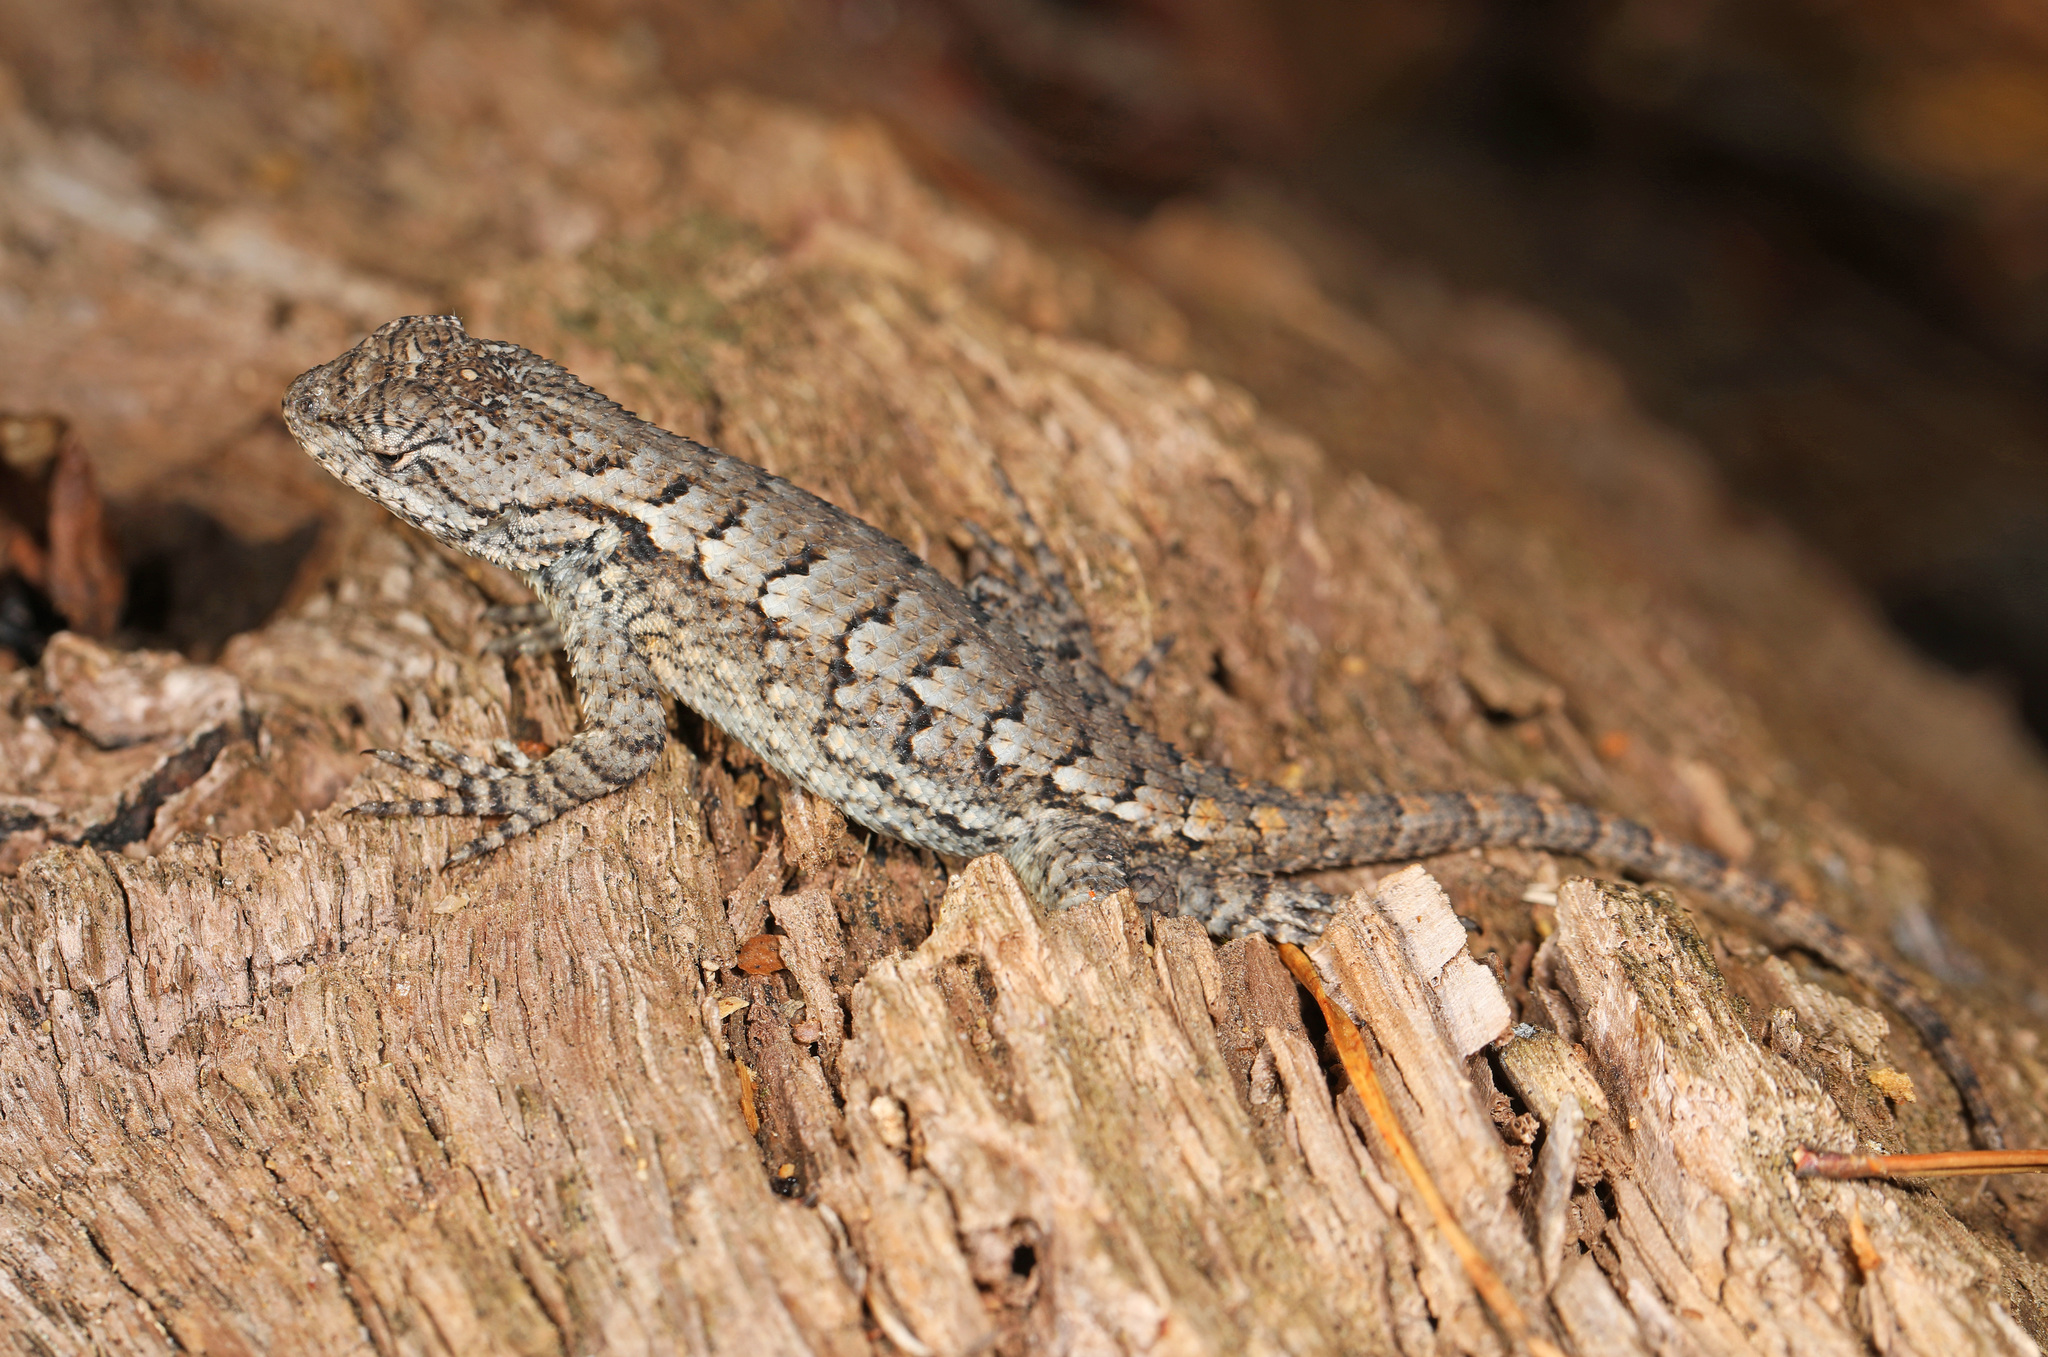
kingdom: Animalia
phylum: Chordata
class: Squamata
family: Phrynosomatidae
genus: Sceloporus
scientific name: Sceloporus undulatus
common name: Eastern fence lizard
